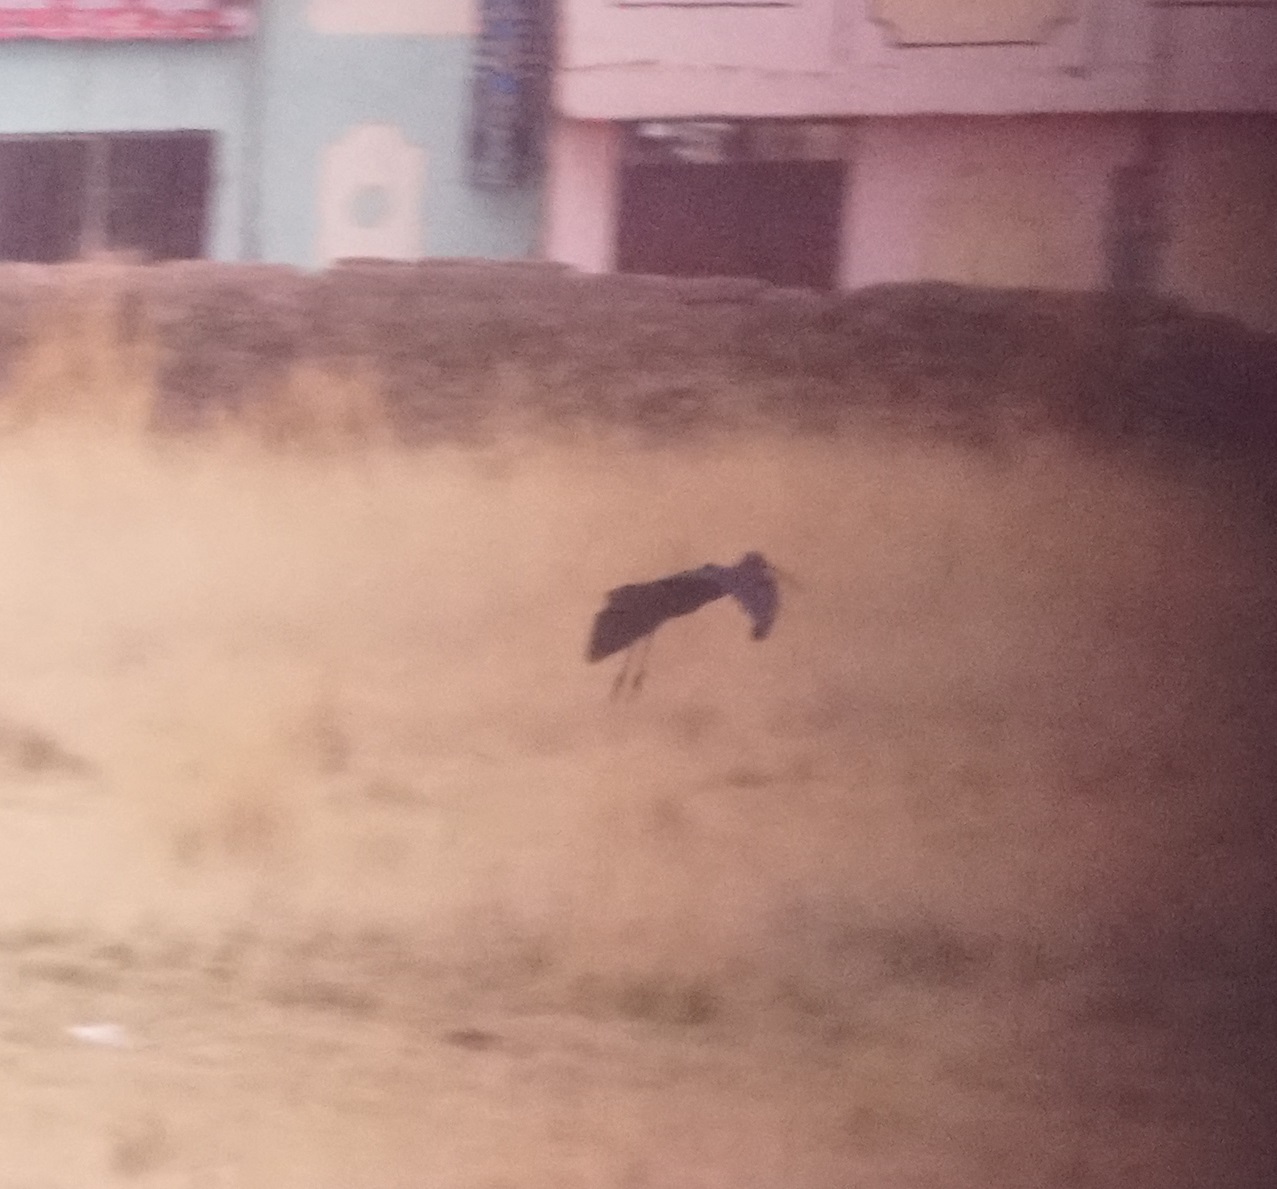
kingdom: Animalia
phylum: Chordata
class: Aves
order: Pelecaniformes
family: Threskiornithidae
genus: Plegadis
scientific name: Plegadis ridgwayi
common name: Puna ibis
